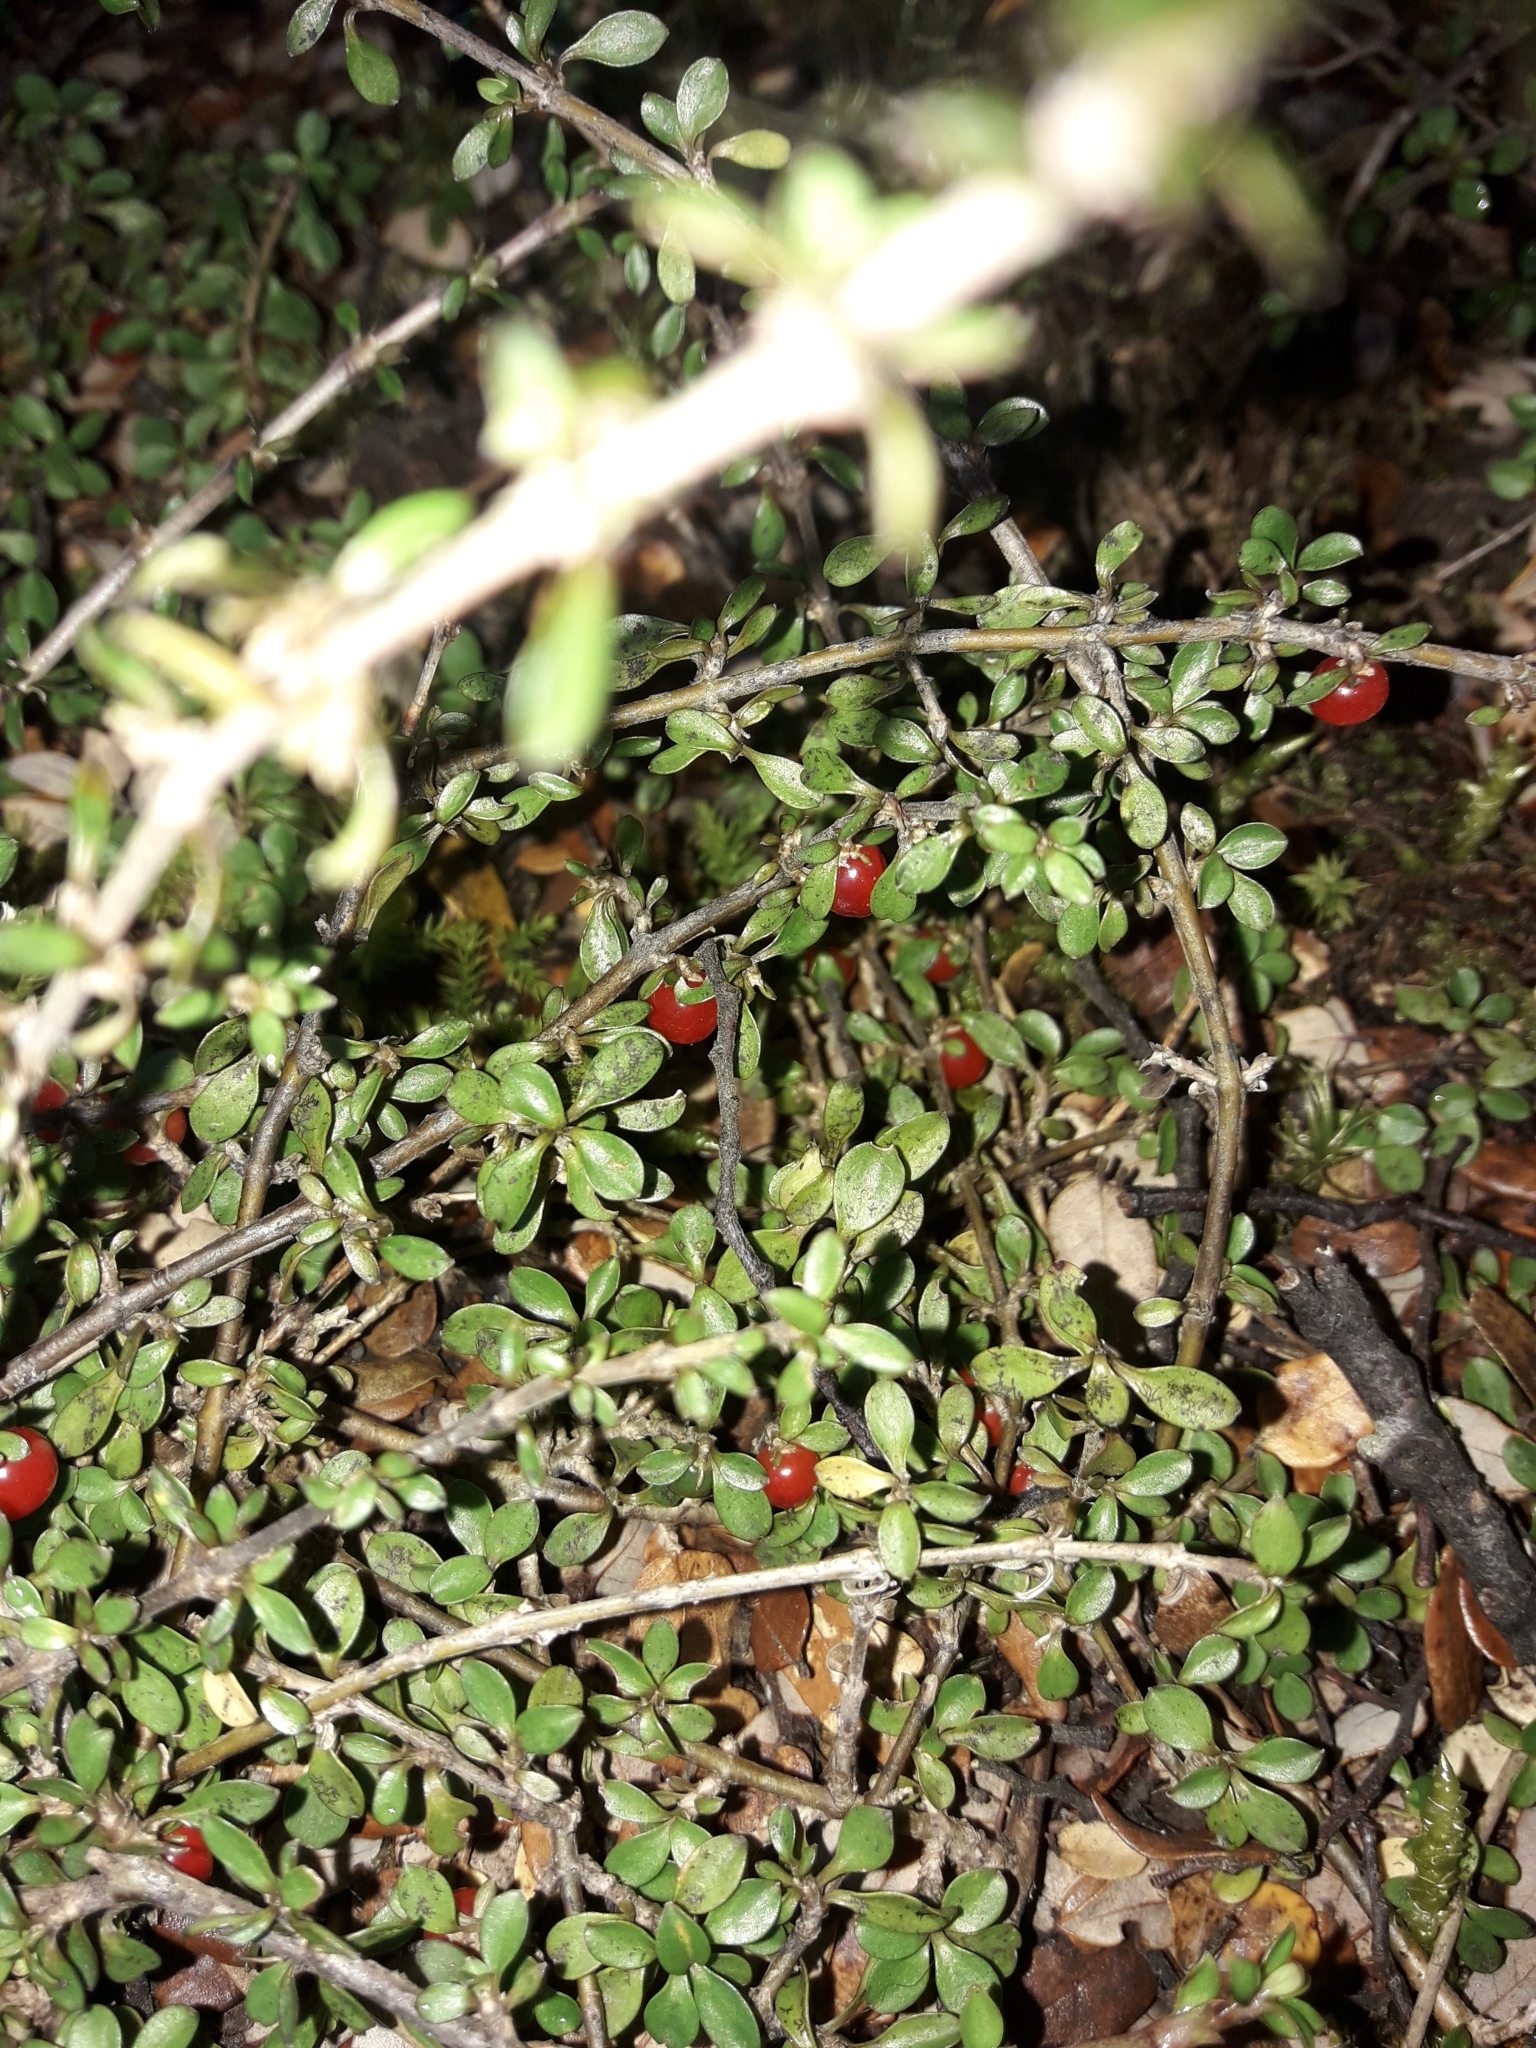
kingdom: Plantae
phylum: Tracheophyta
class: Magnoliopsida
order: Gentianales
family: Rubiaceae
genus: Coprosma
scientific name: Coprosma depressa
